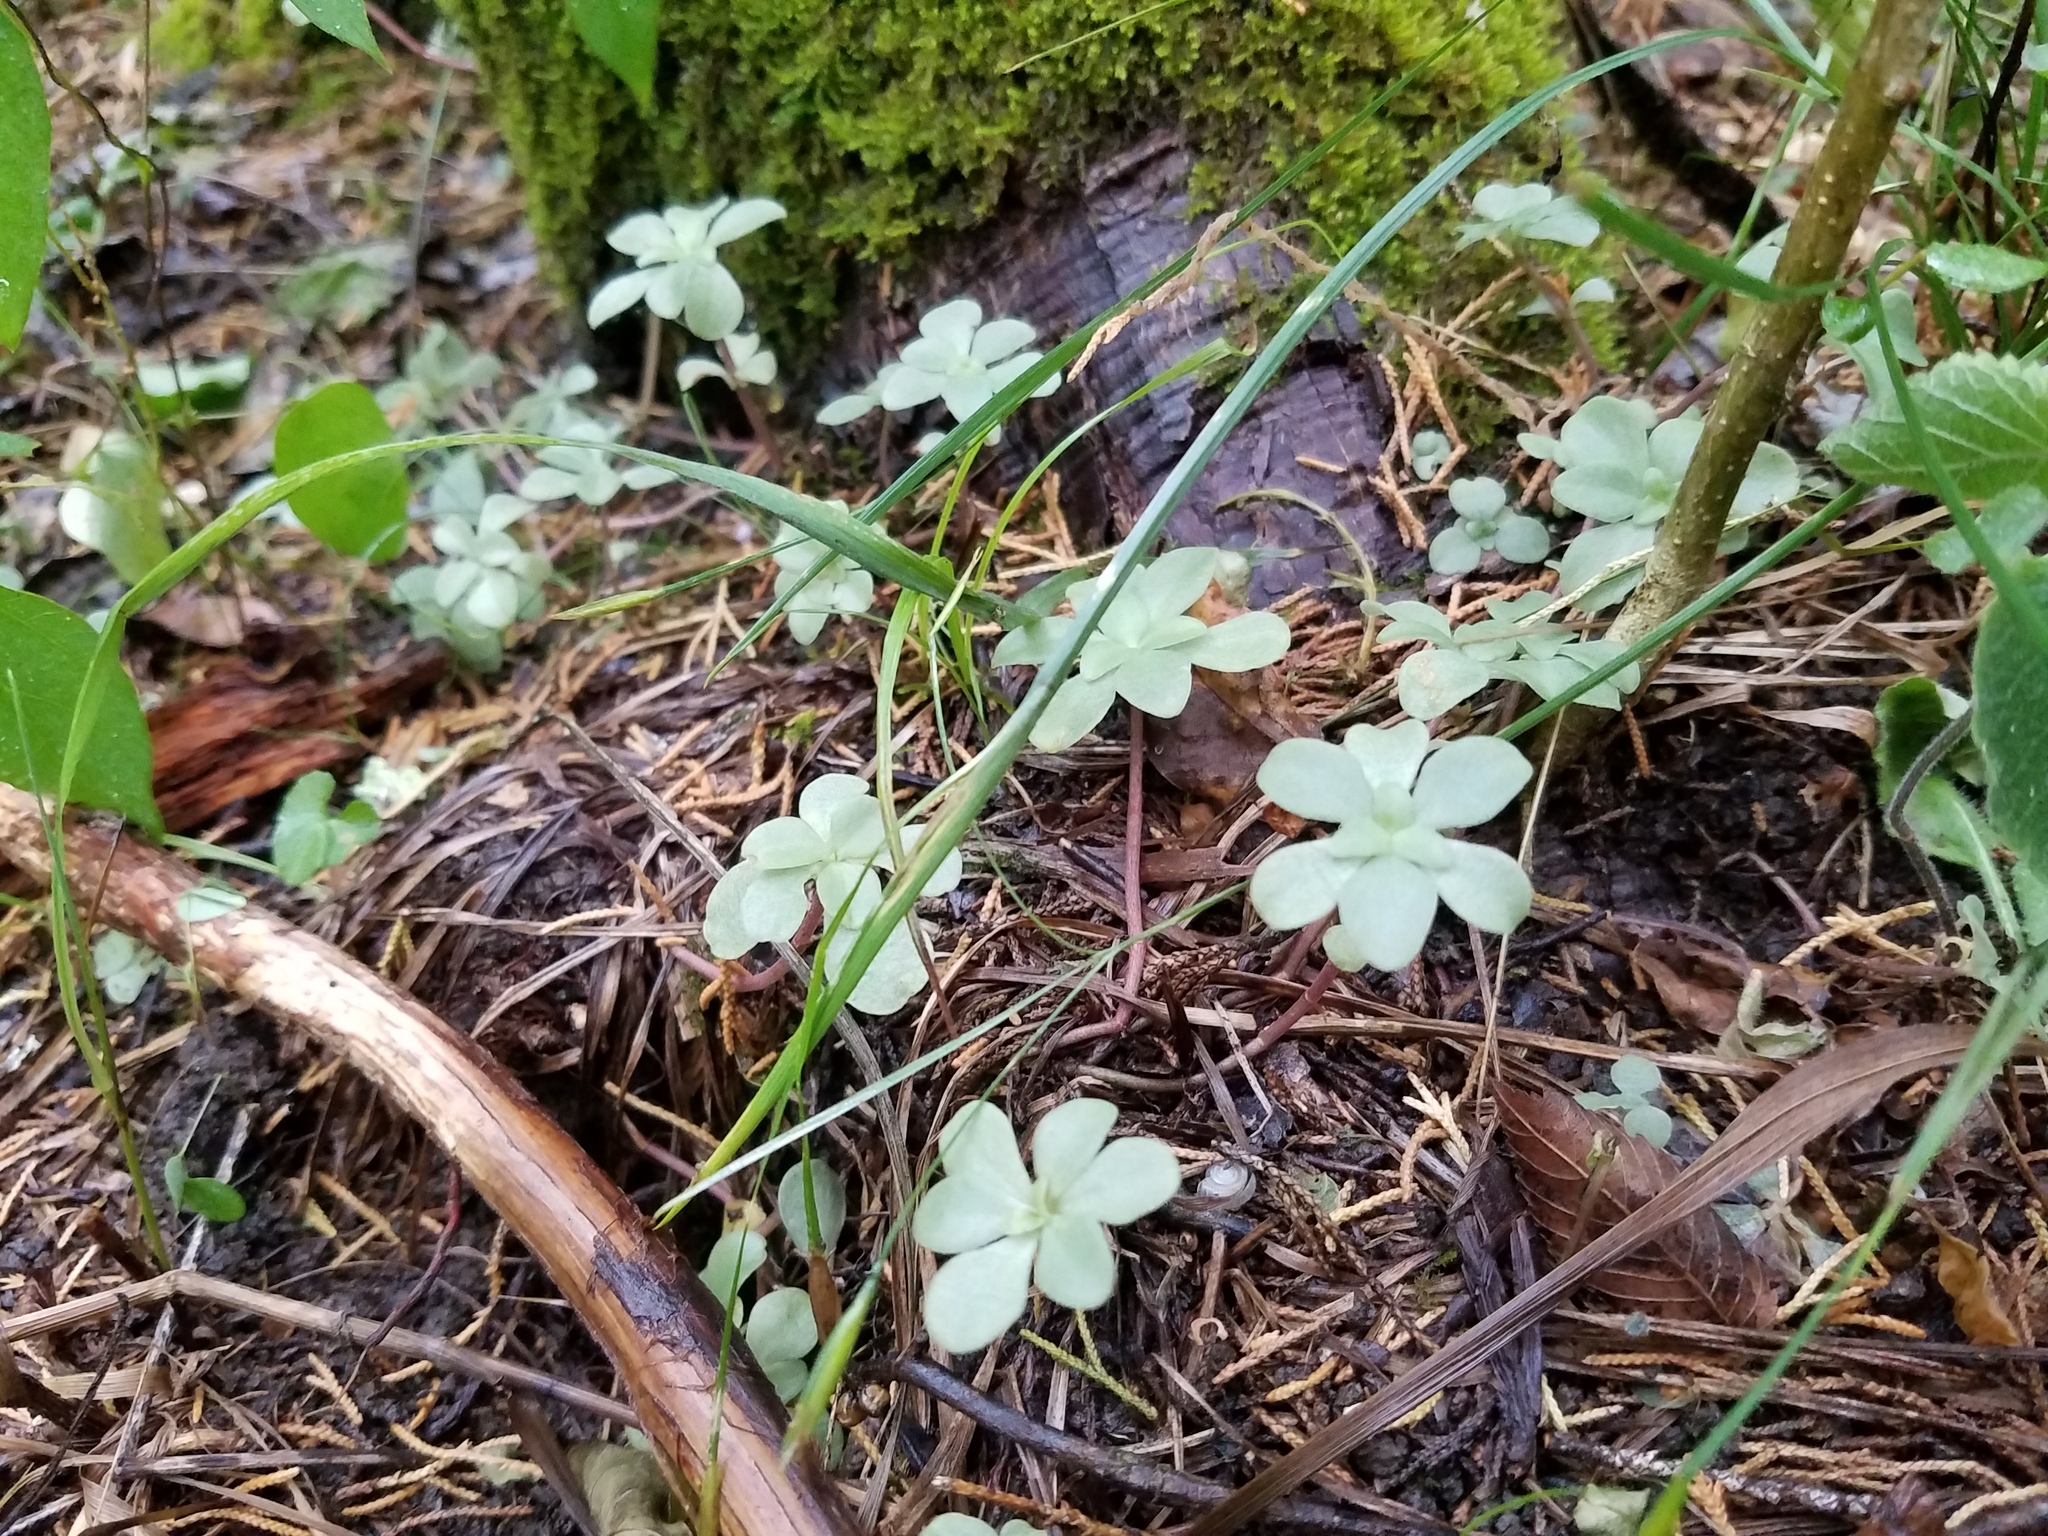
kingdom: Plantae
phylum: Tracheophyta
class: Magnoliopsida
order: Saxifragales
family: Crassulaceae
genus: Sedum
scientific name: Sedum ternatum
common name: Wild stonecrop
